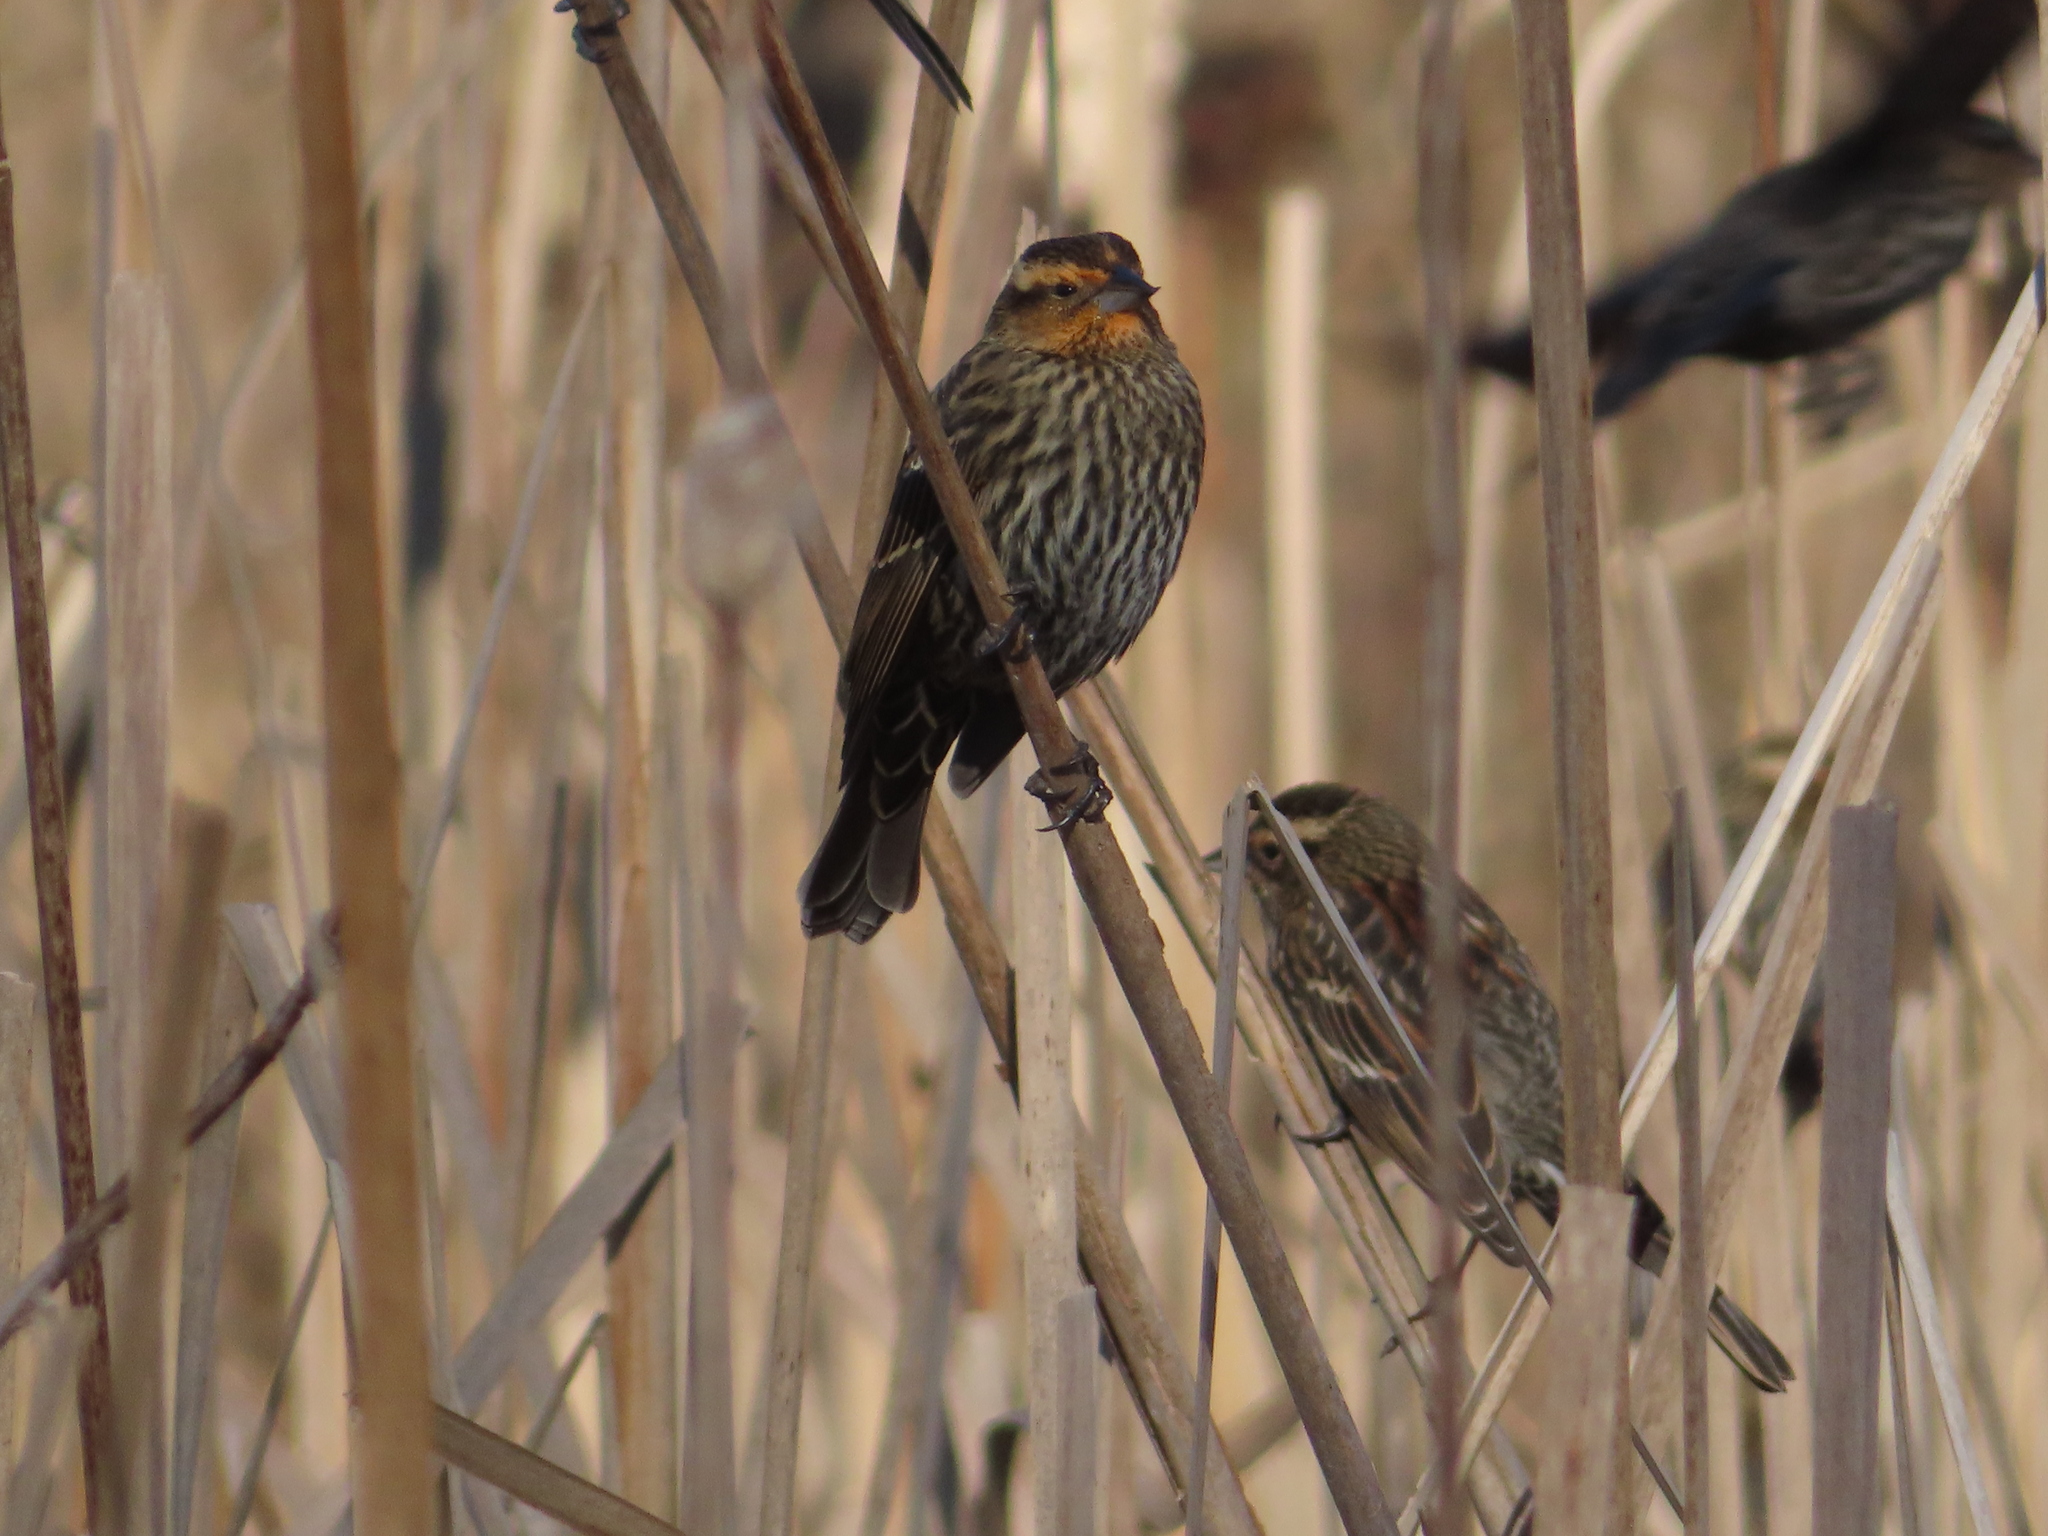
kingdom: Animalia
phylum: Chordata
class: Aves
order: Passeriformes
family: Icteridae
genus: Agelaius
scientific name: Agelaius phoeniceus
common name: Red-winged blackbird
